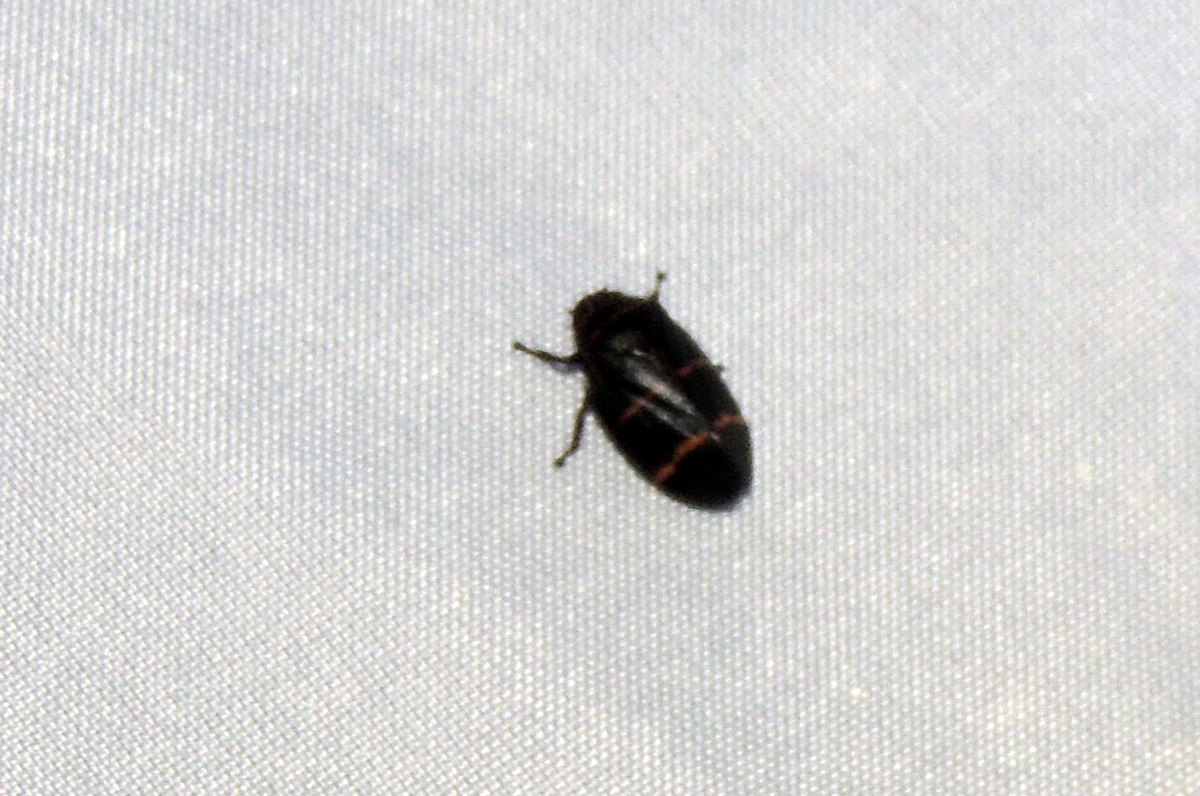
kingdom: Animalia
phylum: Arthropoda
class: Insecta
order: Hemiptera
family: Cercopidae
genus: Prosapia
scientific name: Prosapia bicincta
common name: Twolined spittlebug
